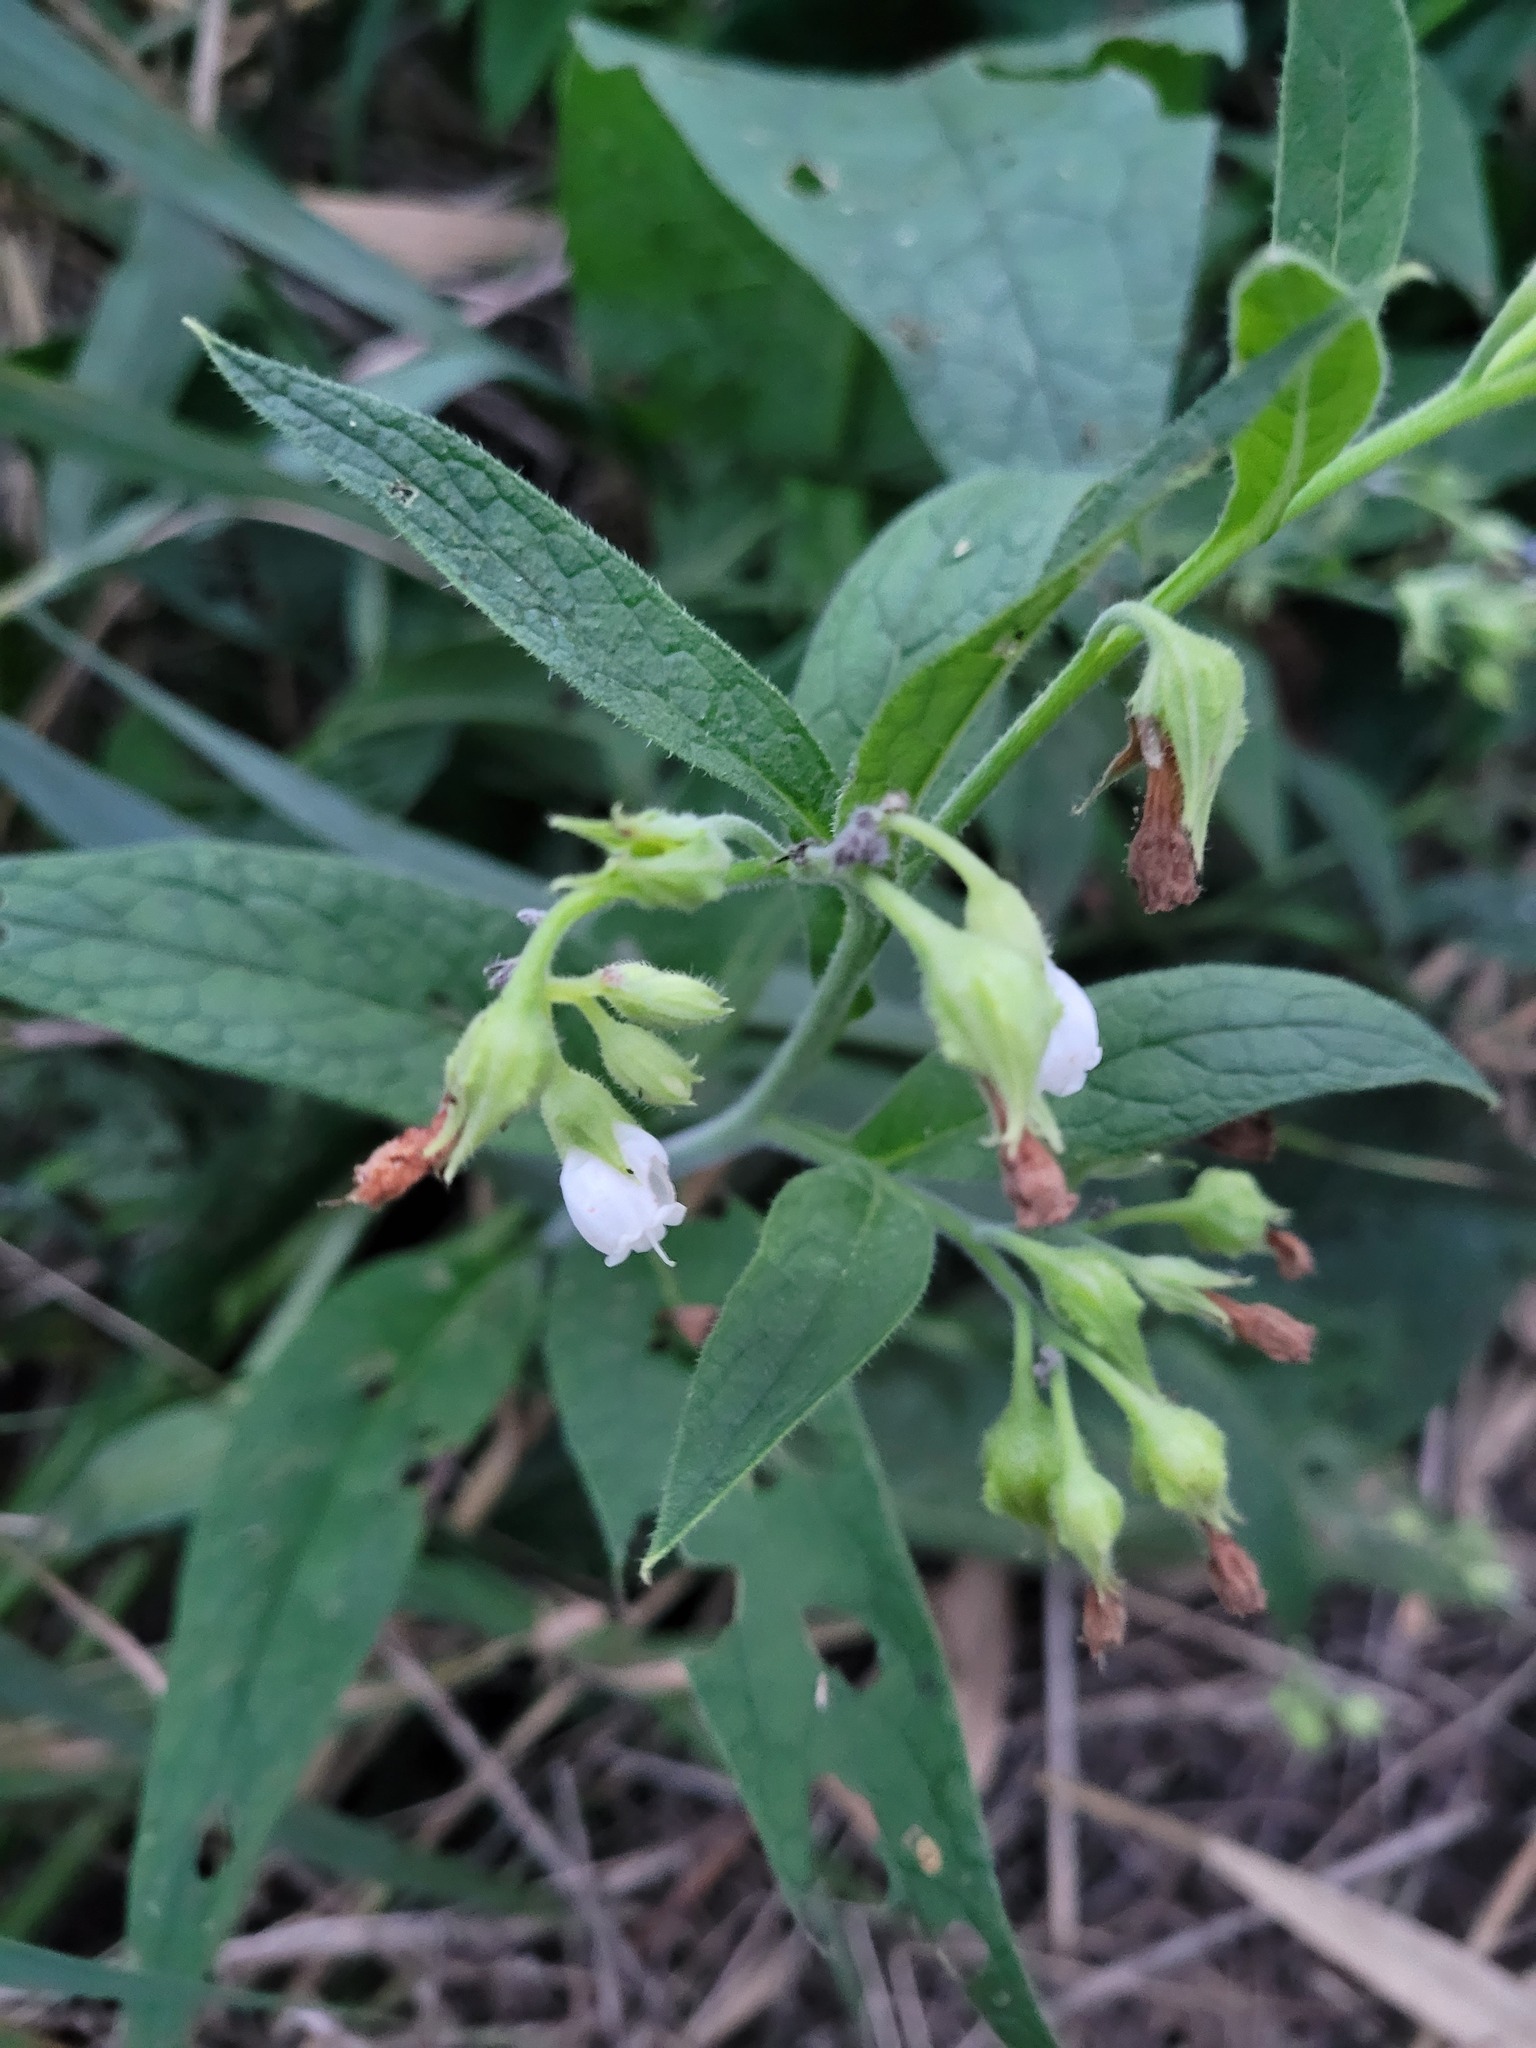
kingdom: Plantae
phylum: Tracheophyta
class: Magnoliopsida
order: Boraginales
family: Boraginaceae
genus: Symphytum
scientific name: Symphytum officinale
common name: Common comfrey
